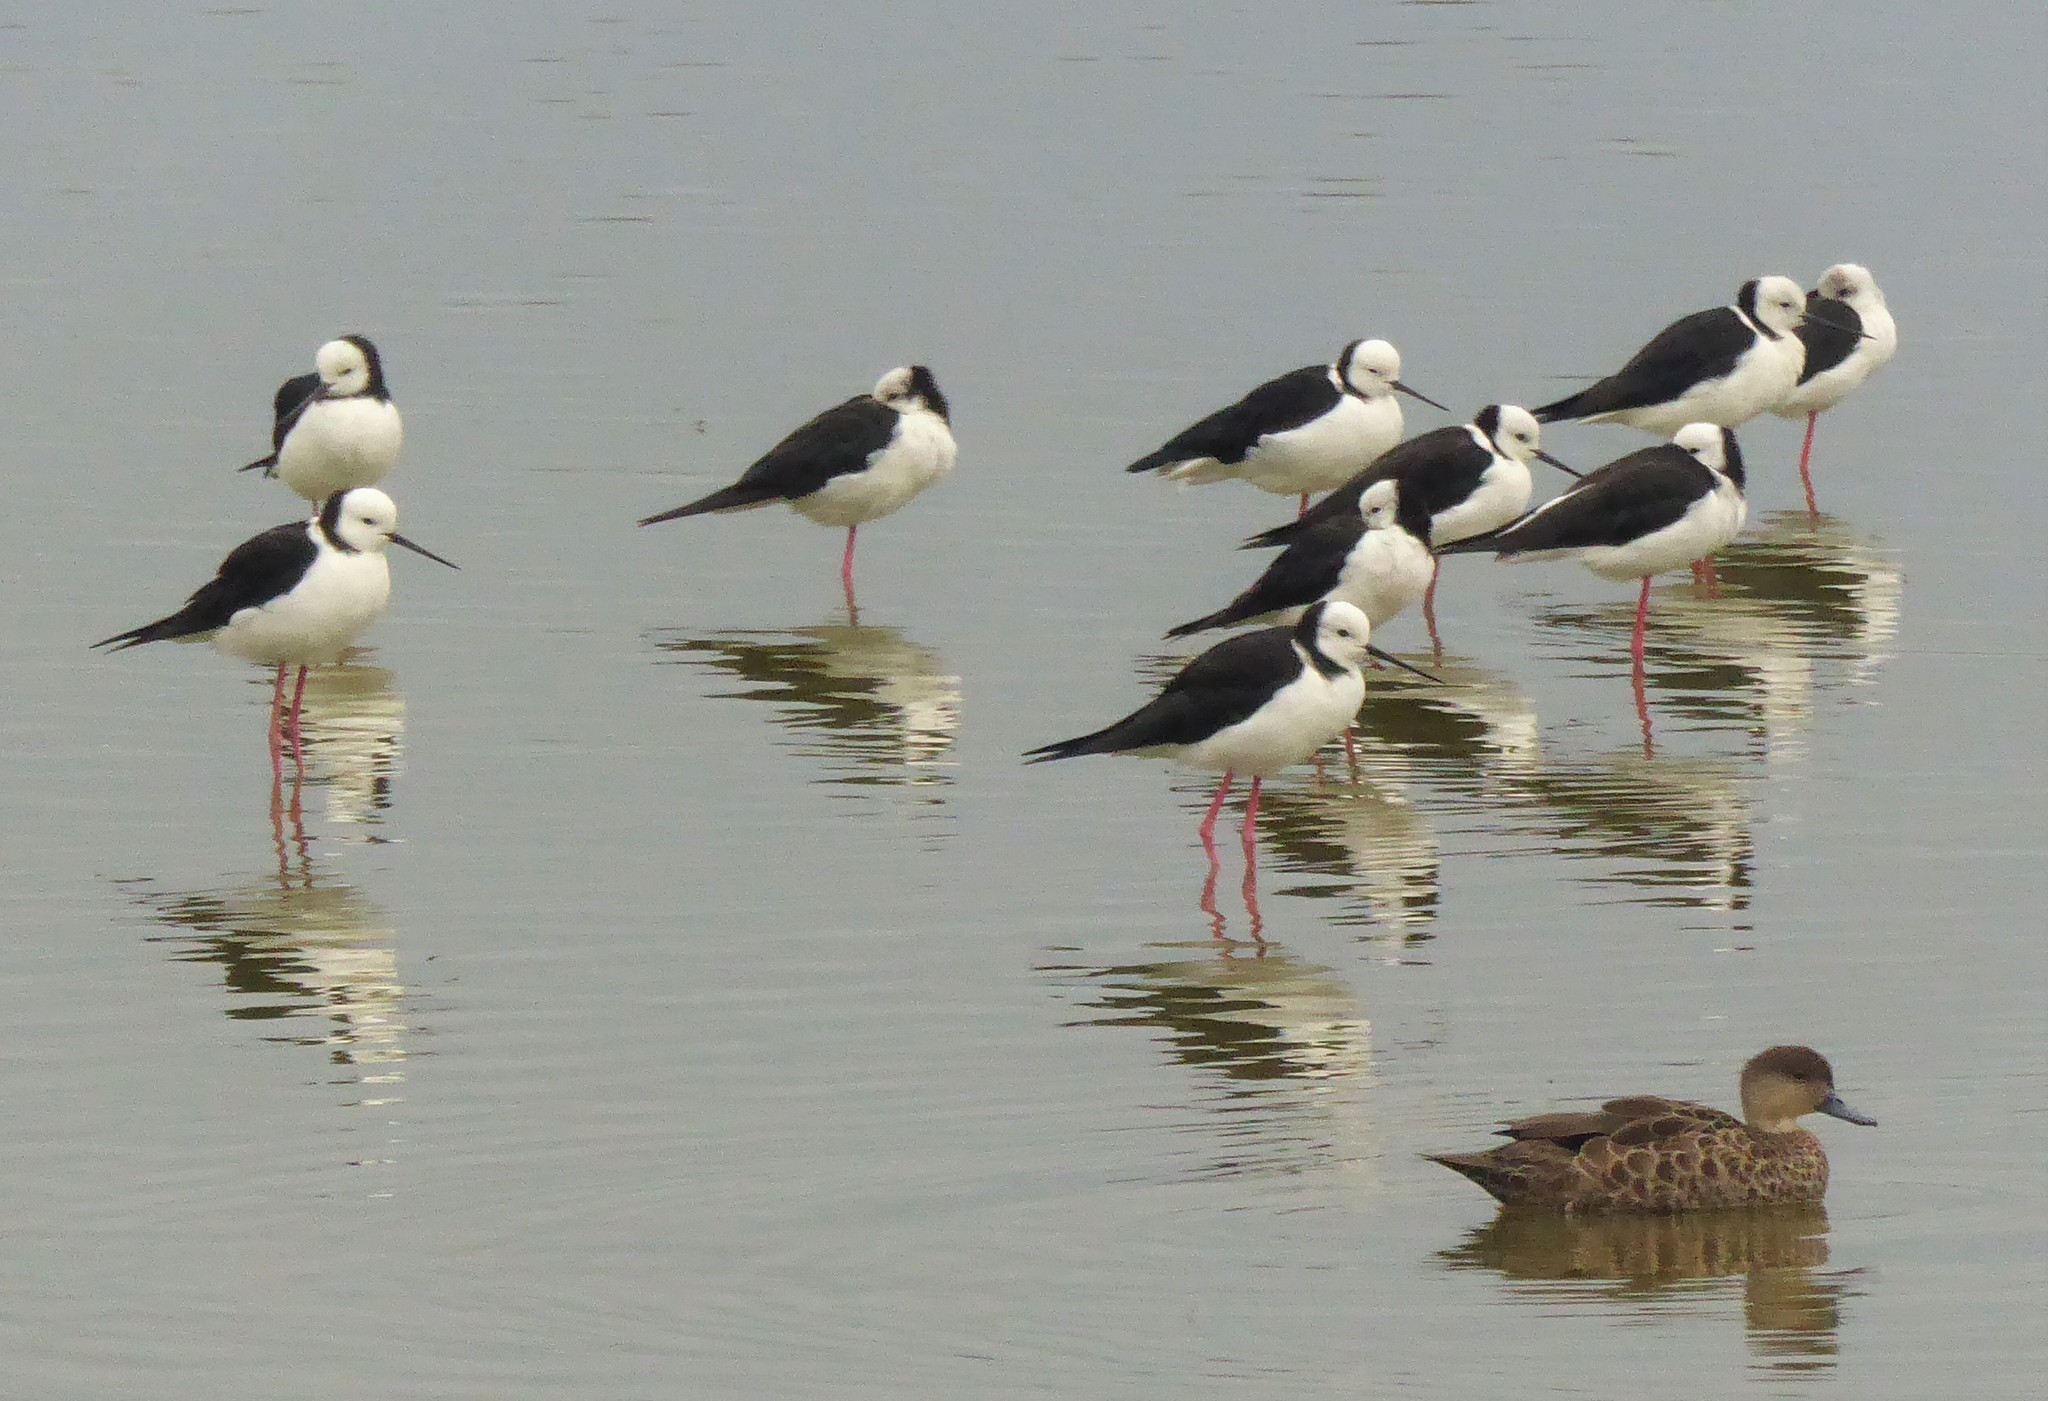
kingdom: Animalia
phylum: Chordata
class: Aves
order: Charadriiformes
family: Recurvirostridae
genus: Himantopus
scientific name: Himantopus leucocephalus
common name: White-headed stilt
